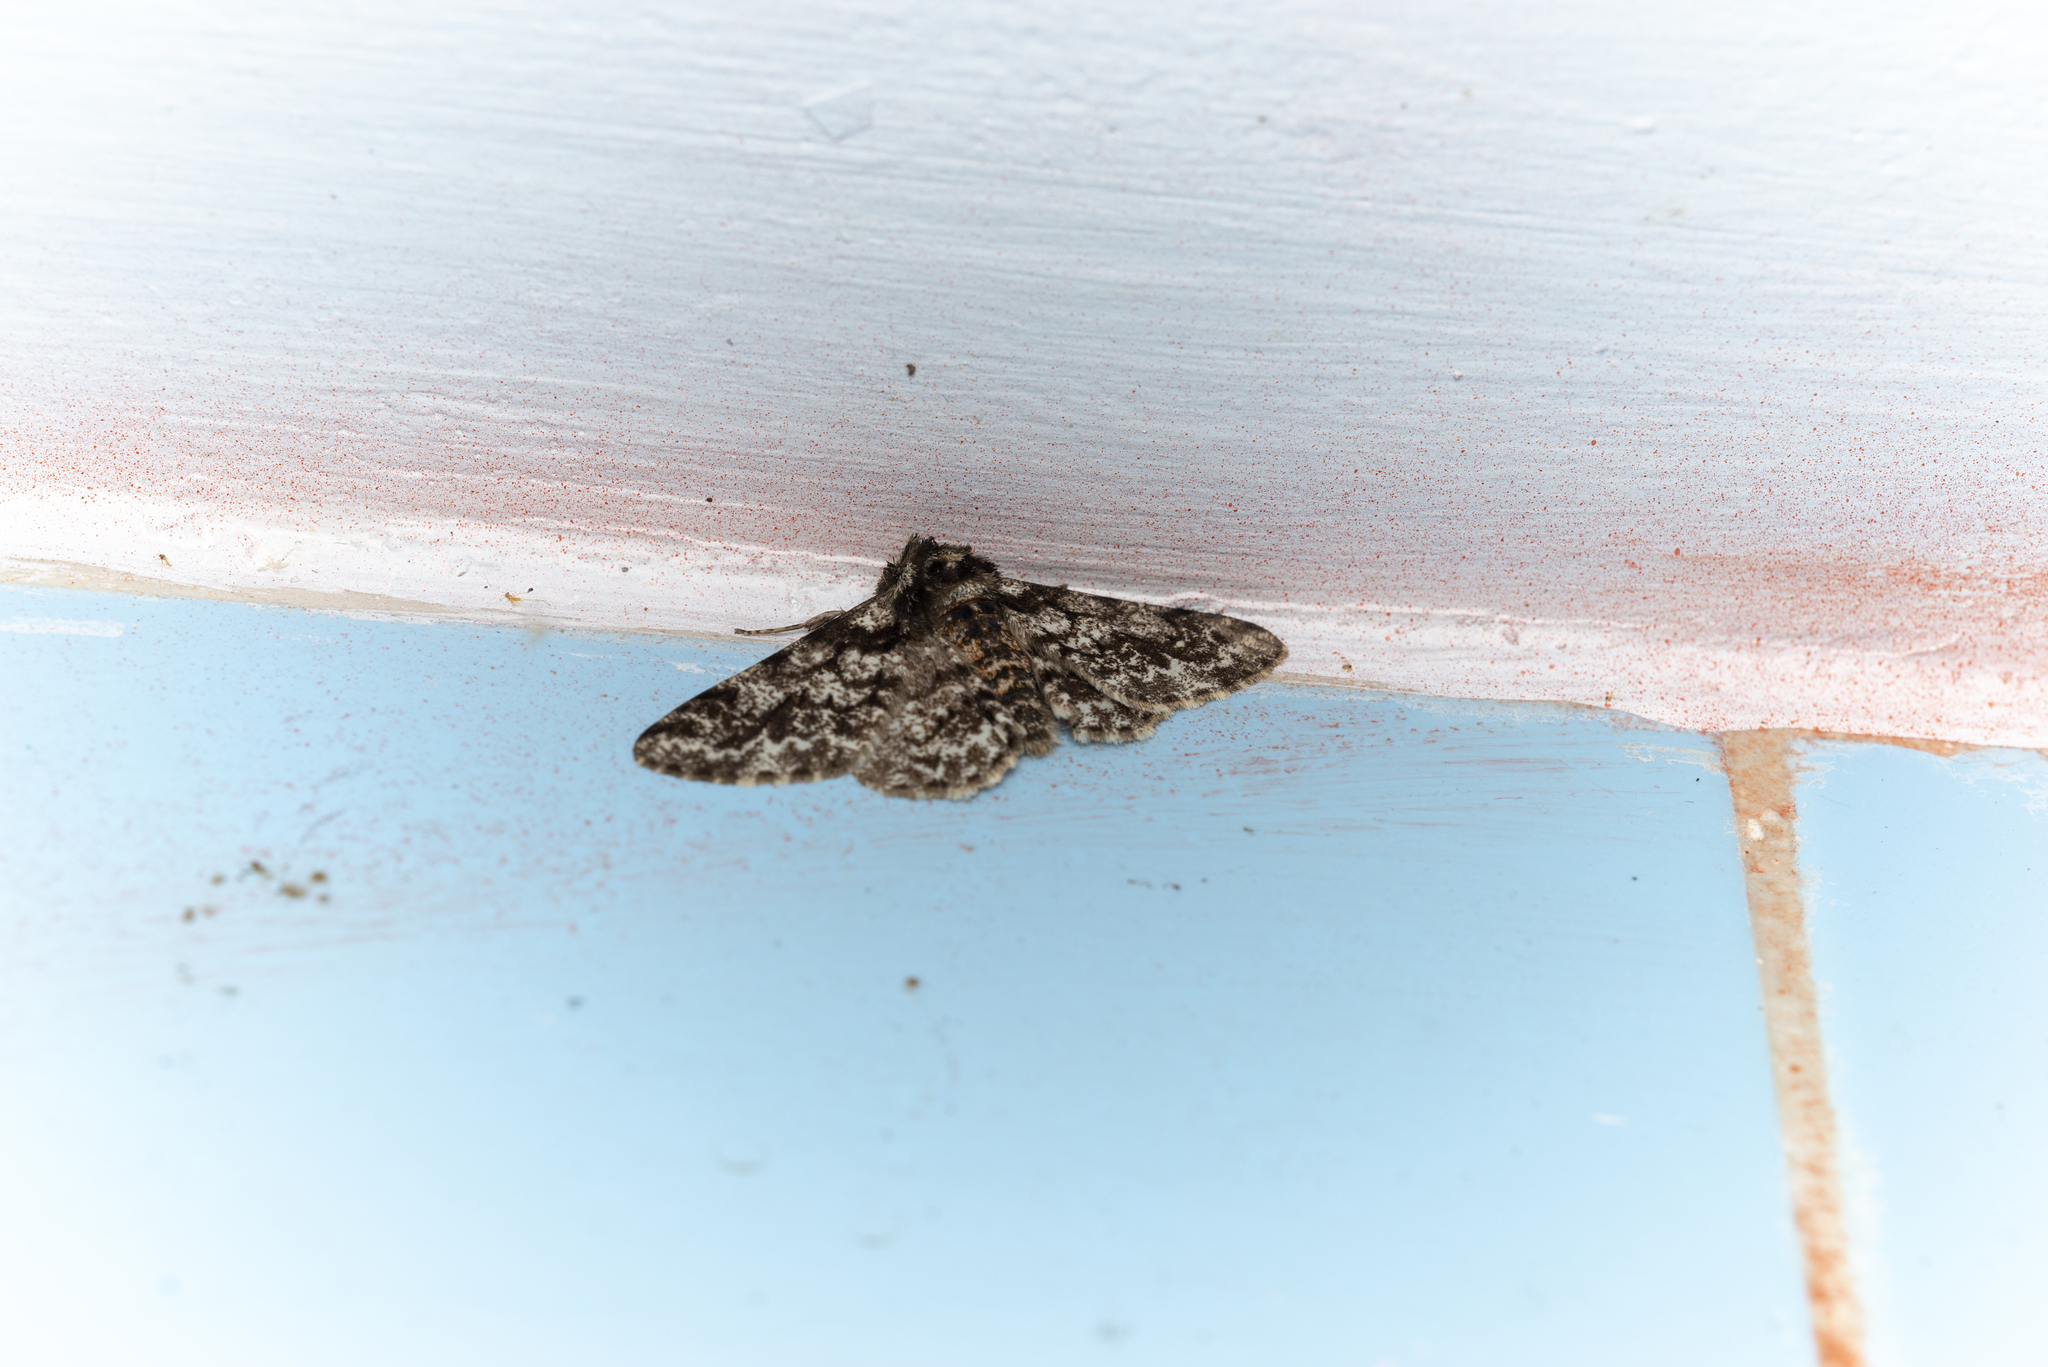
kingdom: Animalia
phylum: Arthropoda
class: Insecta
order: Lepidoptera
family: Geometridae
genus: Biston
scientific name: Biston marginata
